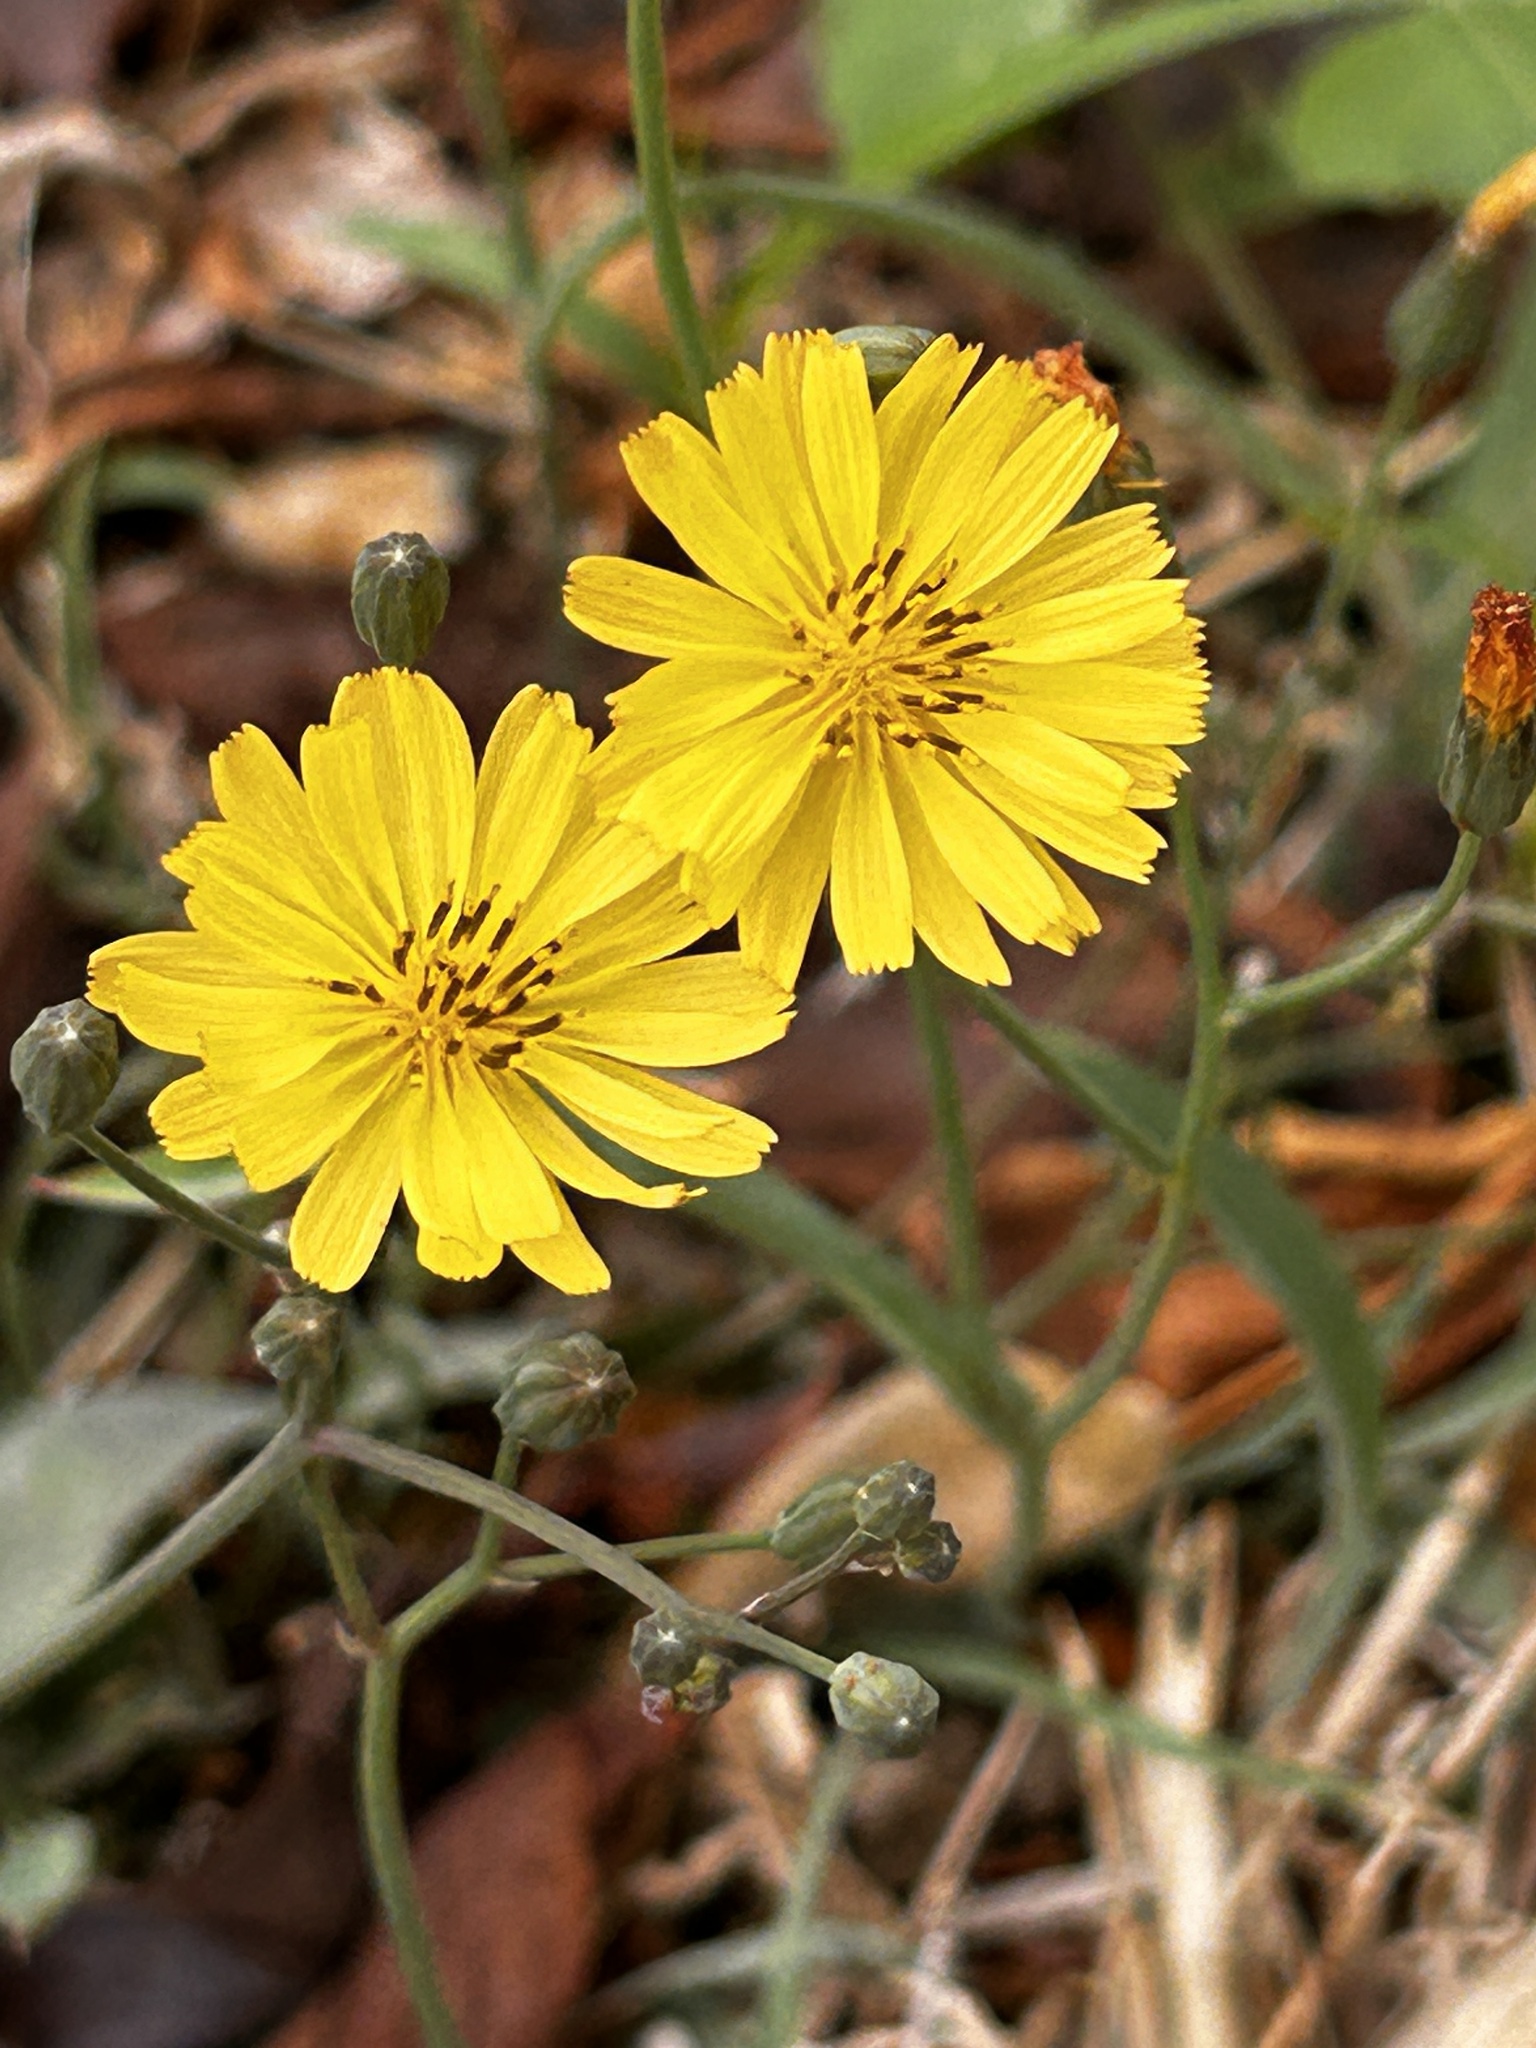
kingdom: Plantae
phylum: Tracheophyta
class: Magnoliopsida
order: Asterales
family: Asteraceae
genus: Ixeris
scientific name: Ixeris chinensis
